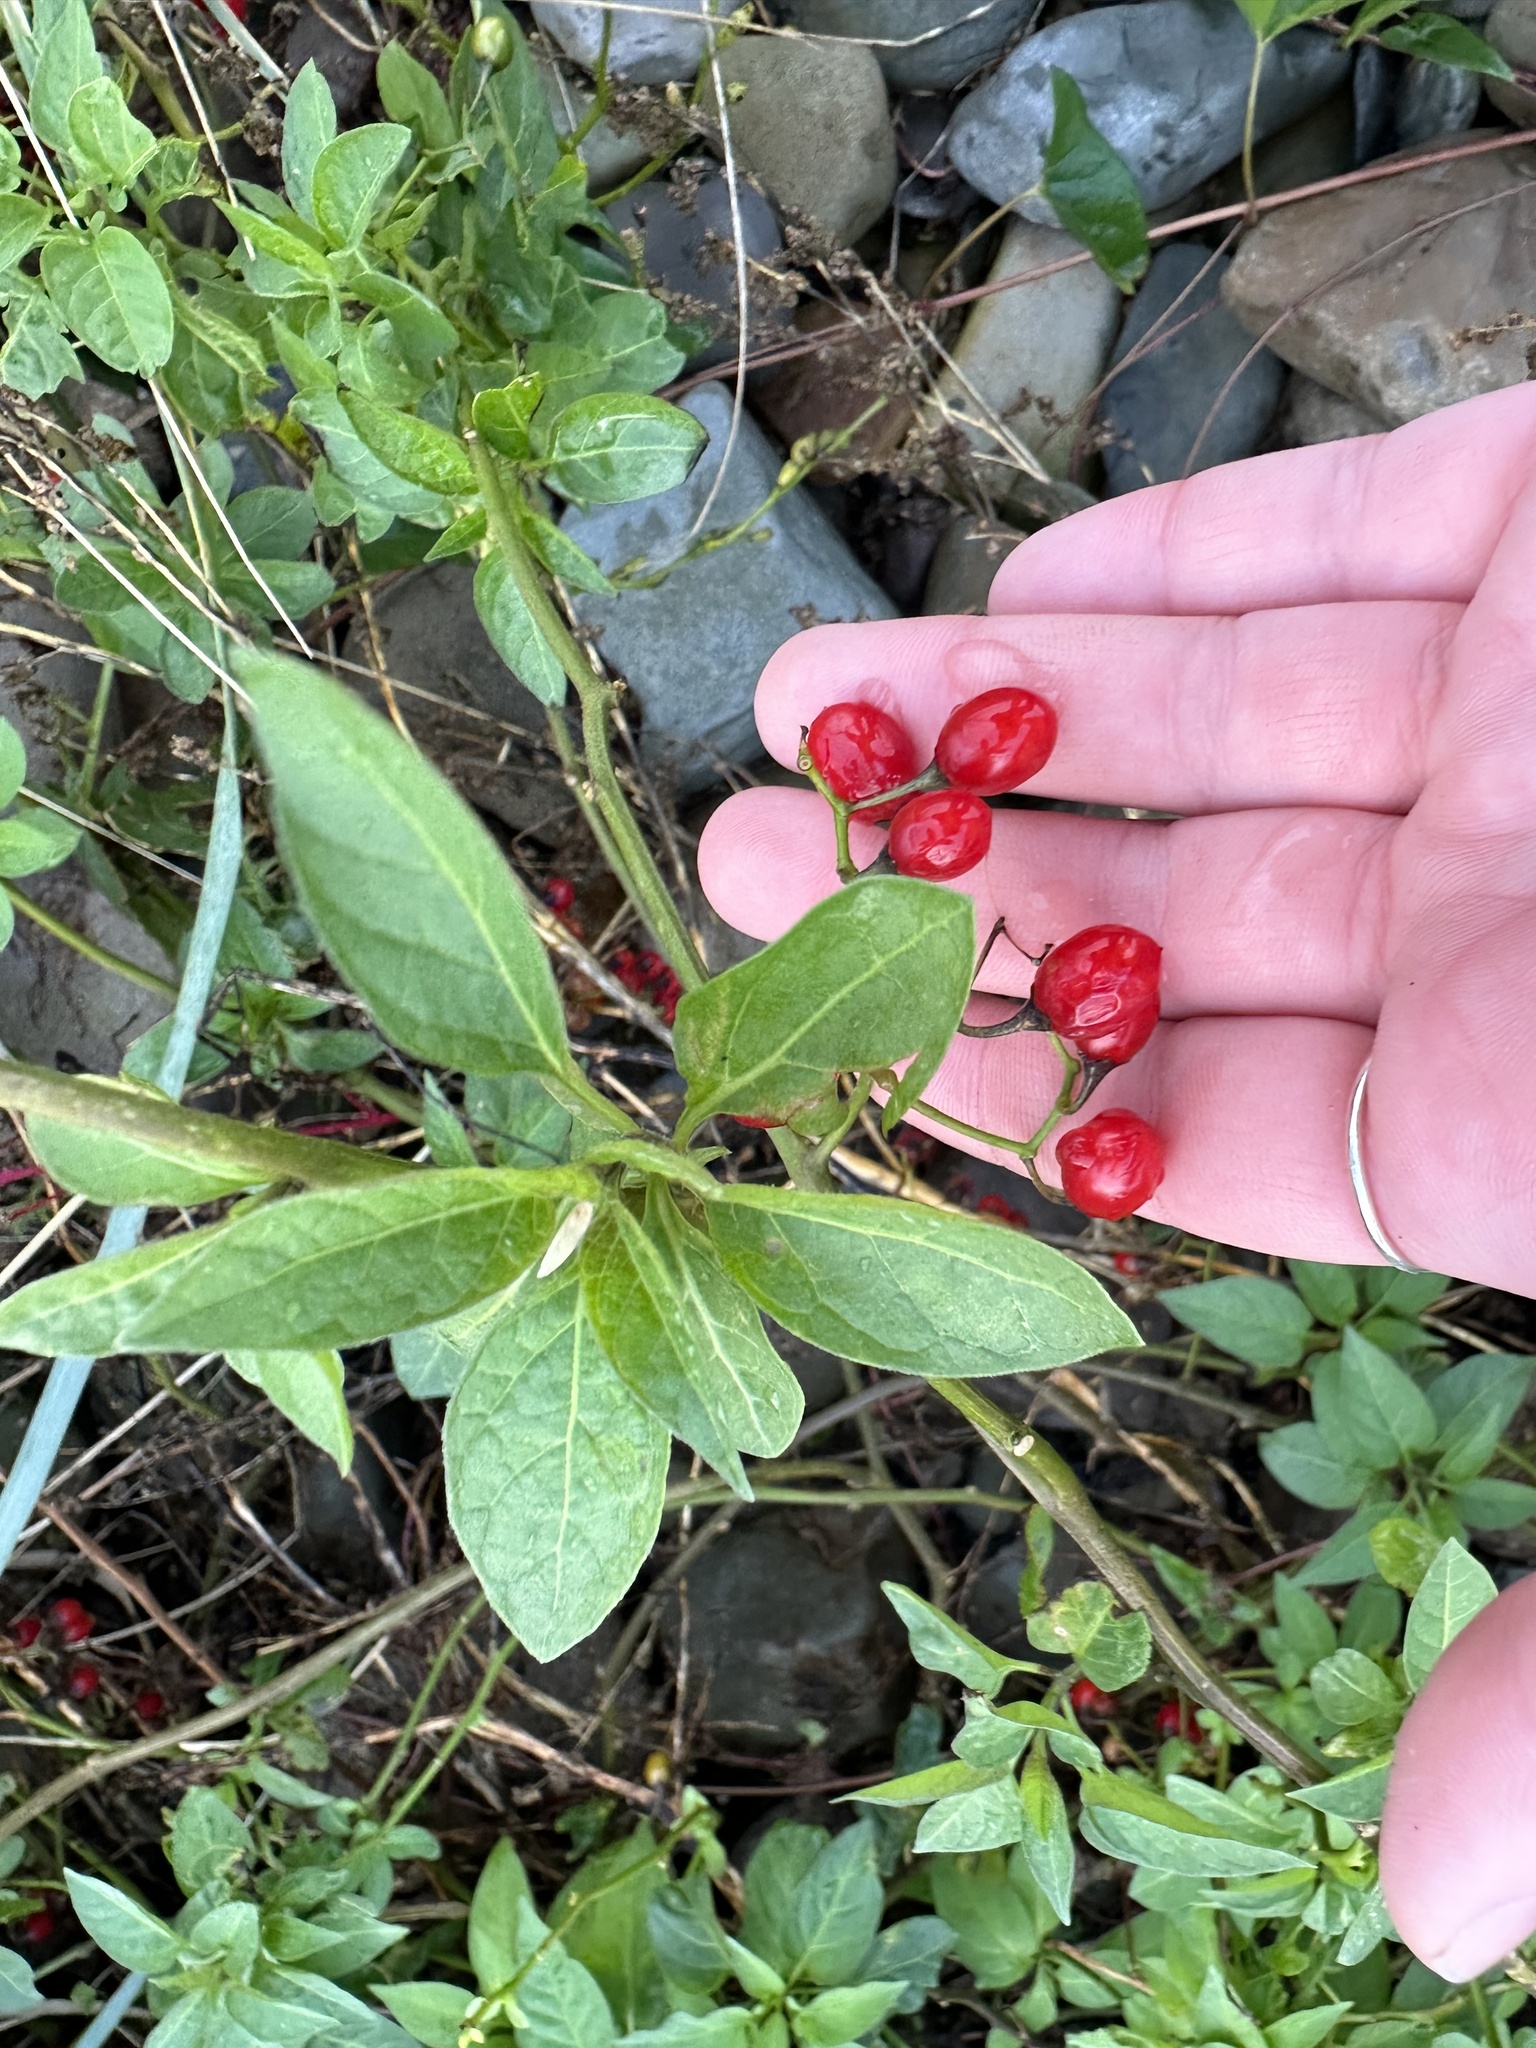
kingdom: Plantae
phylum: Tracheophyta
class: Magnoliopsida
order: Solanales
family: Solanaceae
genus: Solanum
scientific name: Solanum dulcamara
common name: Climbing nightshade
